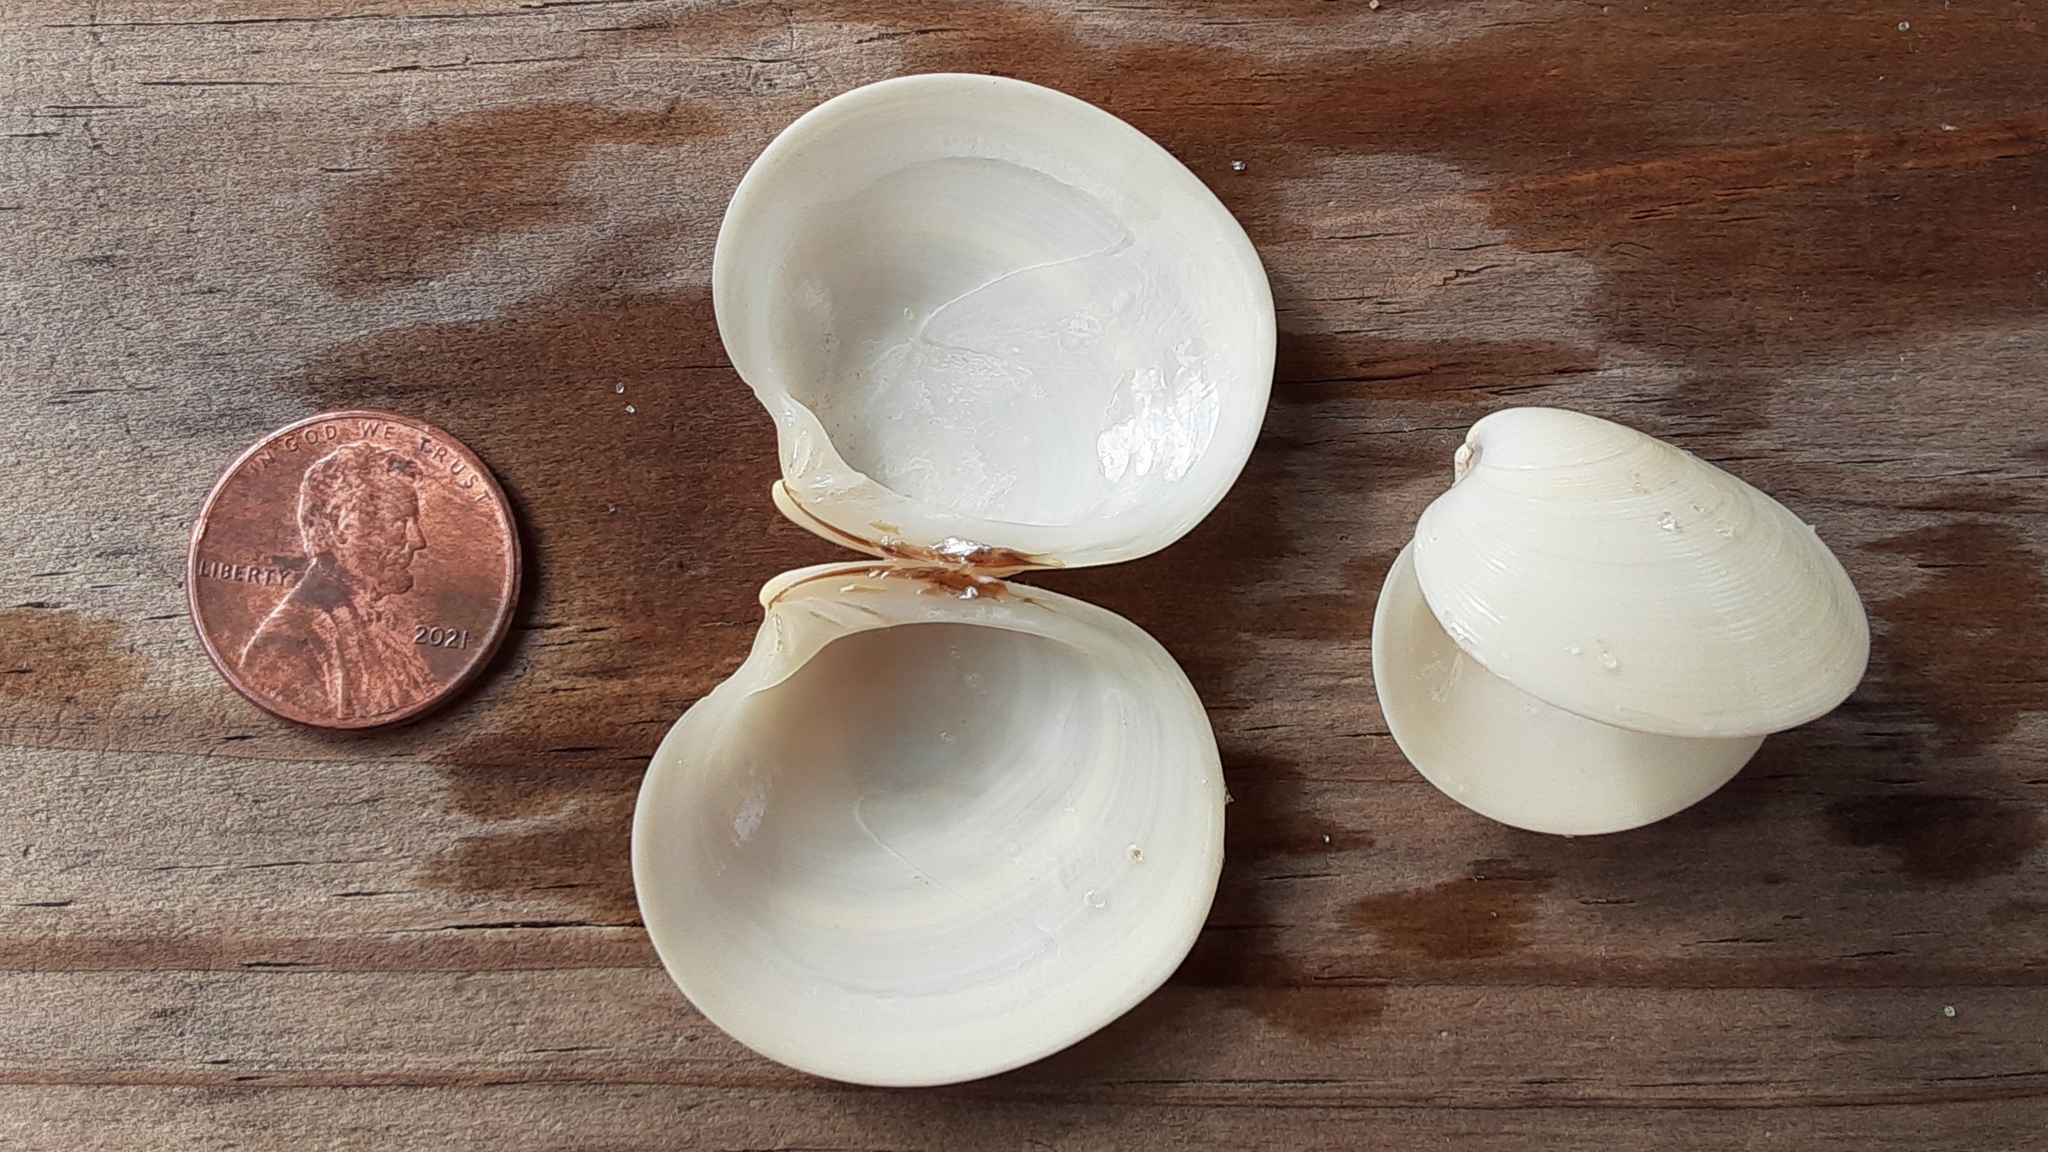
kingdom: Animalia
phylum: Mollusca
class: Bivalvia
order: Venerida
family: Veneridae
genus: Dosinia
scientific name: Dosinia discus
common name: Disk dosinia
